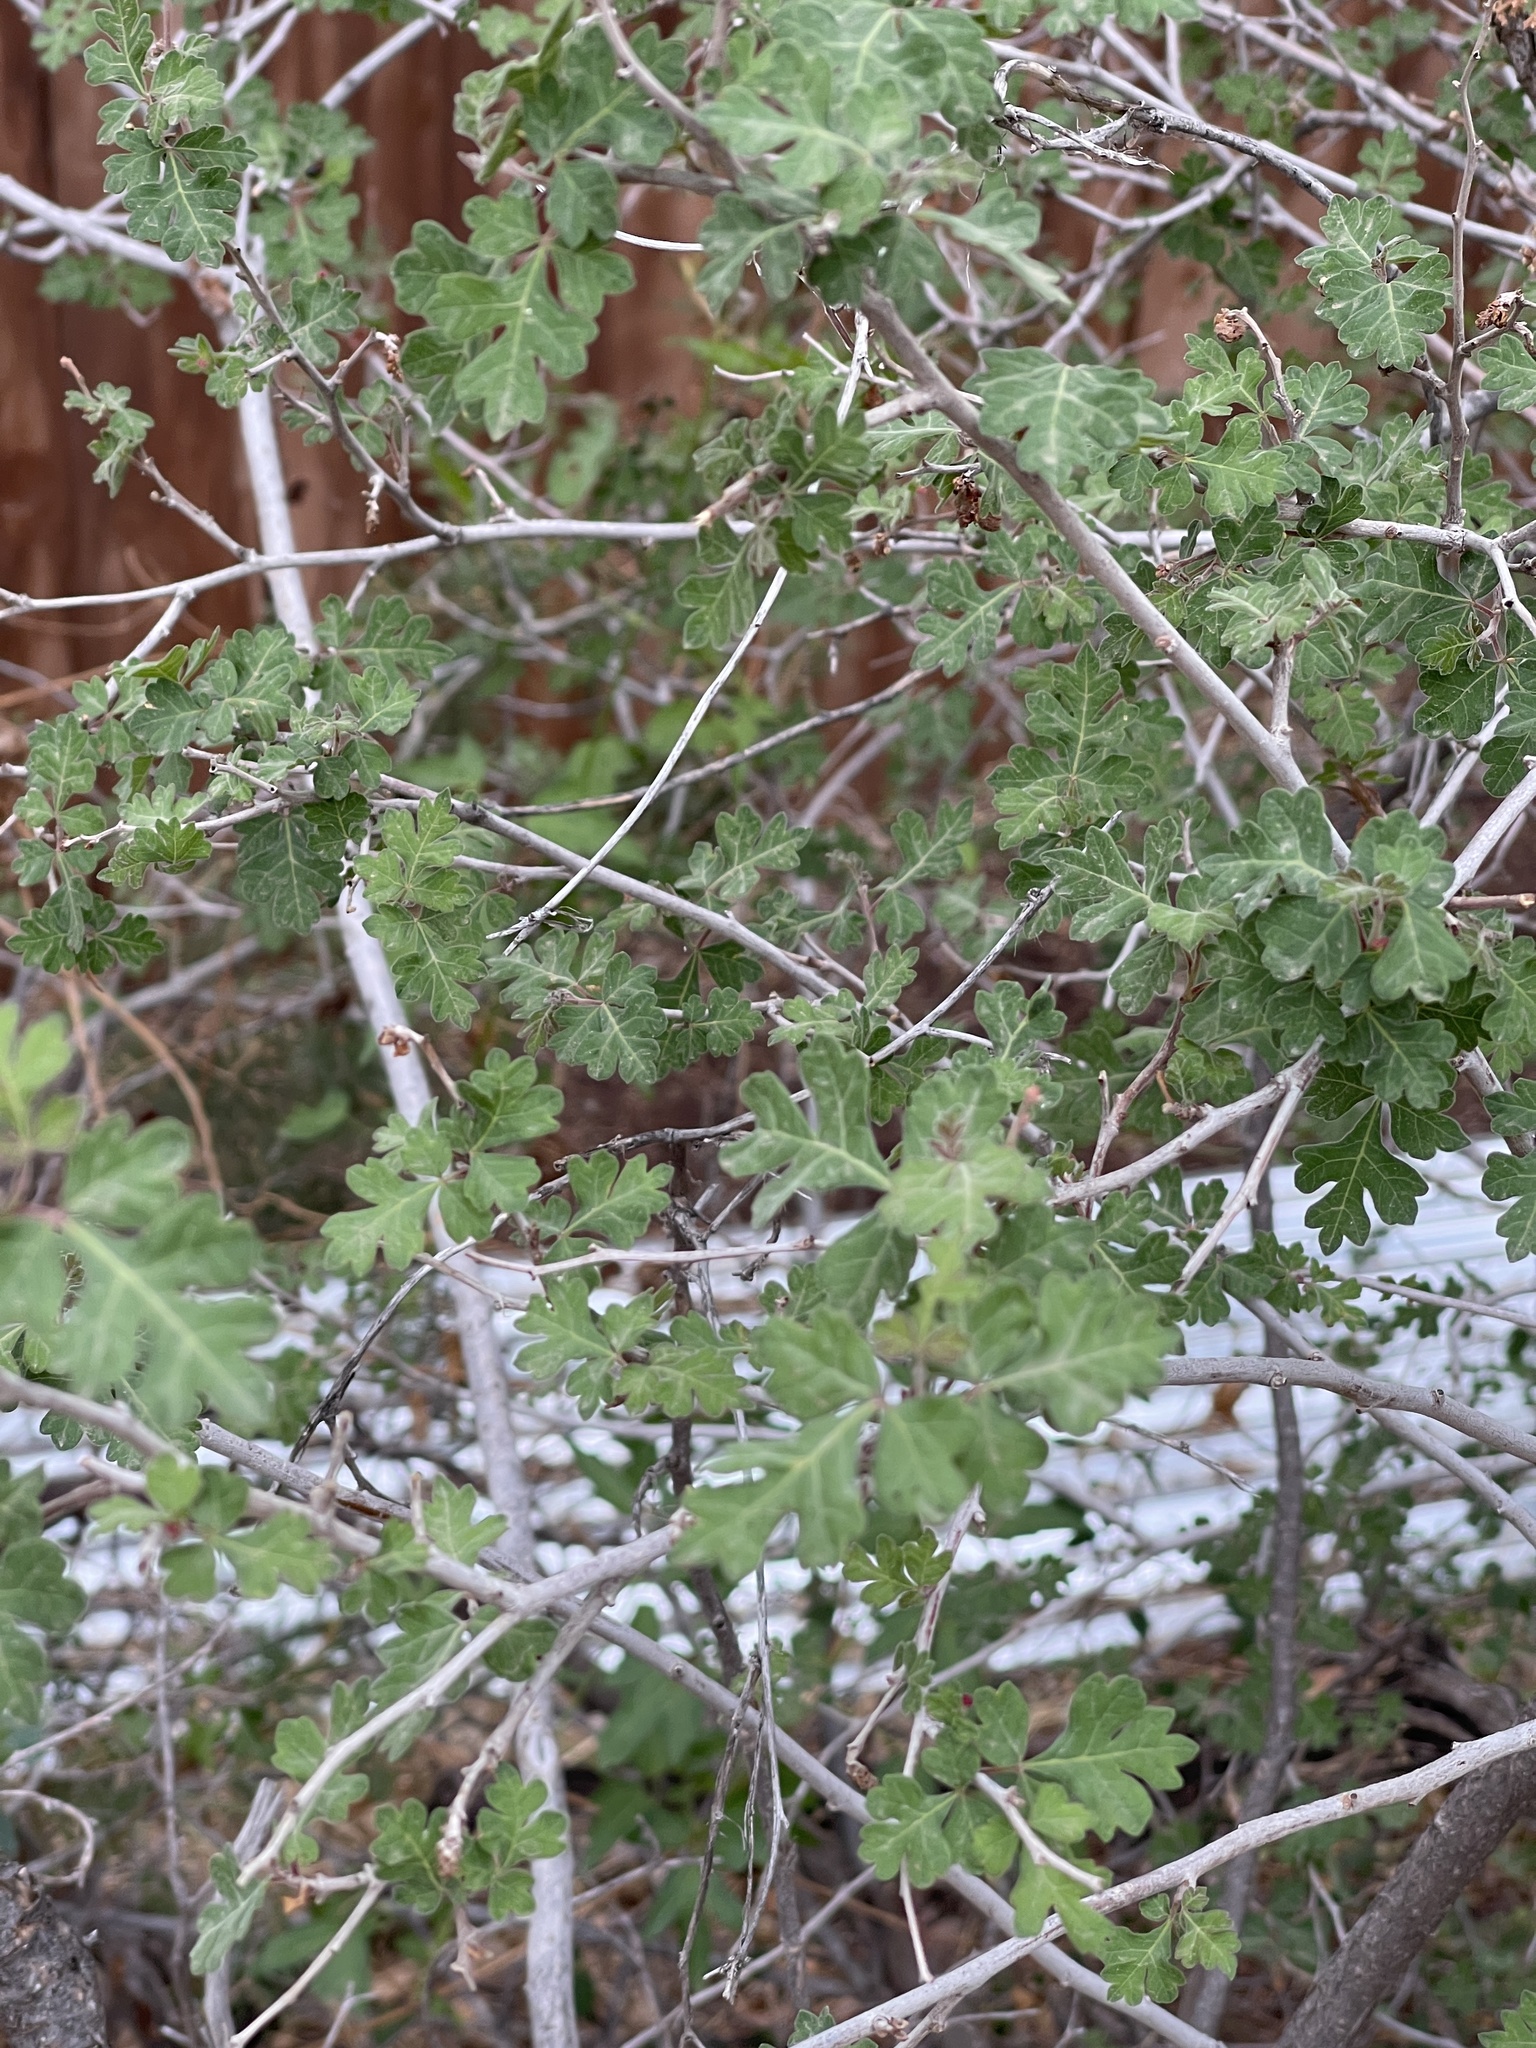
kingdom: Plantae
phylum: Tracheophyta
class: Magnoliopsida
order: Sapindales
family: Anacardiaceae
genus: Rhus
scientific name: Rhus trilobata
